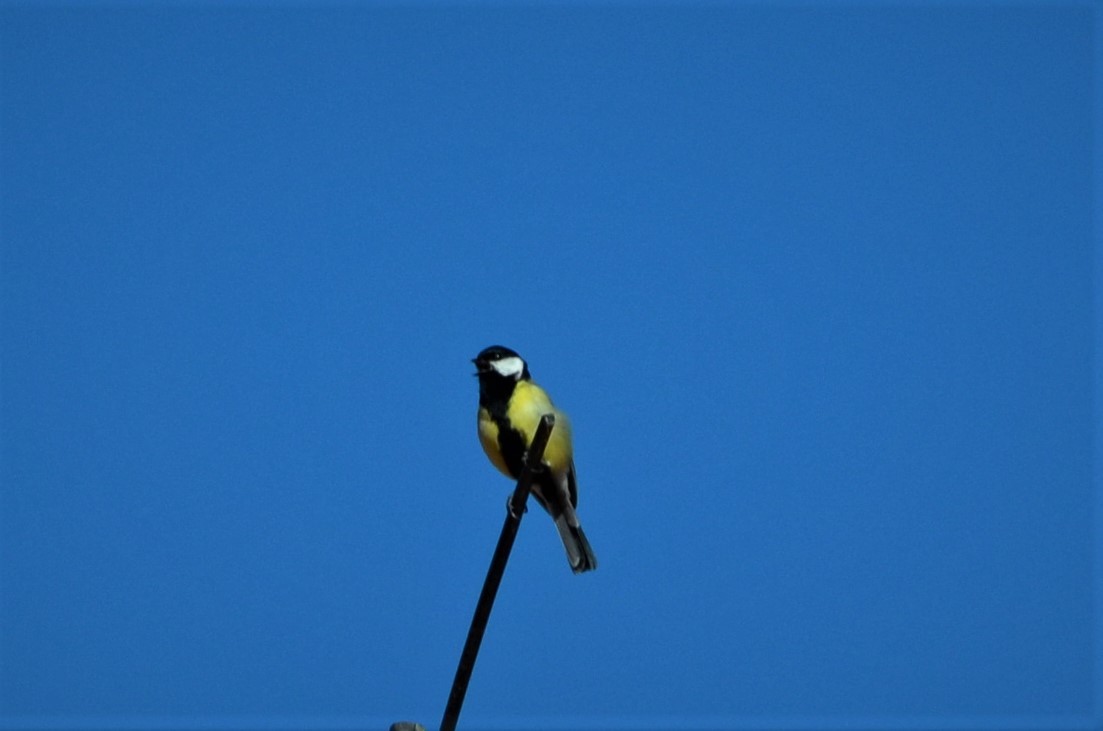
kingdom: Animalia
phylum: Chordata
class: Aves
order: Passeriformes
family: Paridae
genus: Parus
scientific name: Parus major
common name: Great tit
